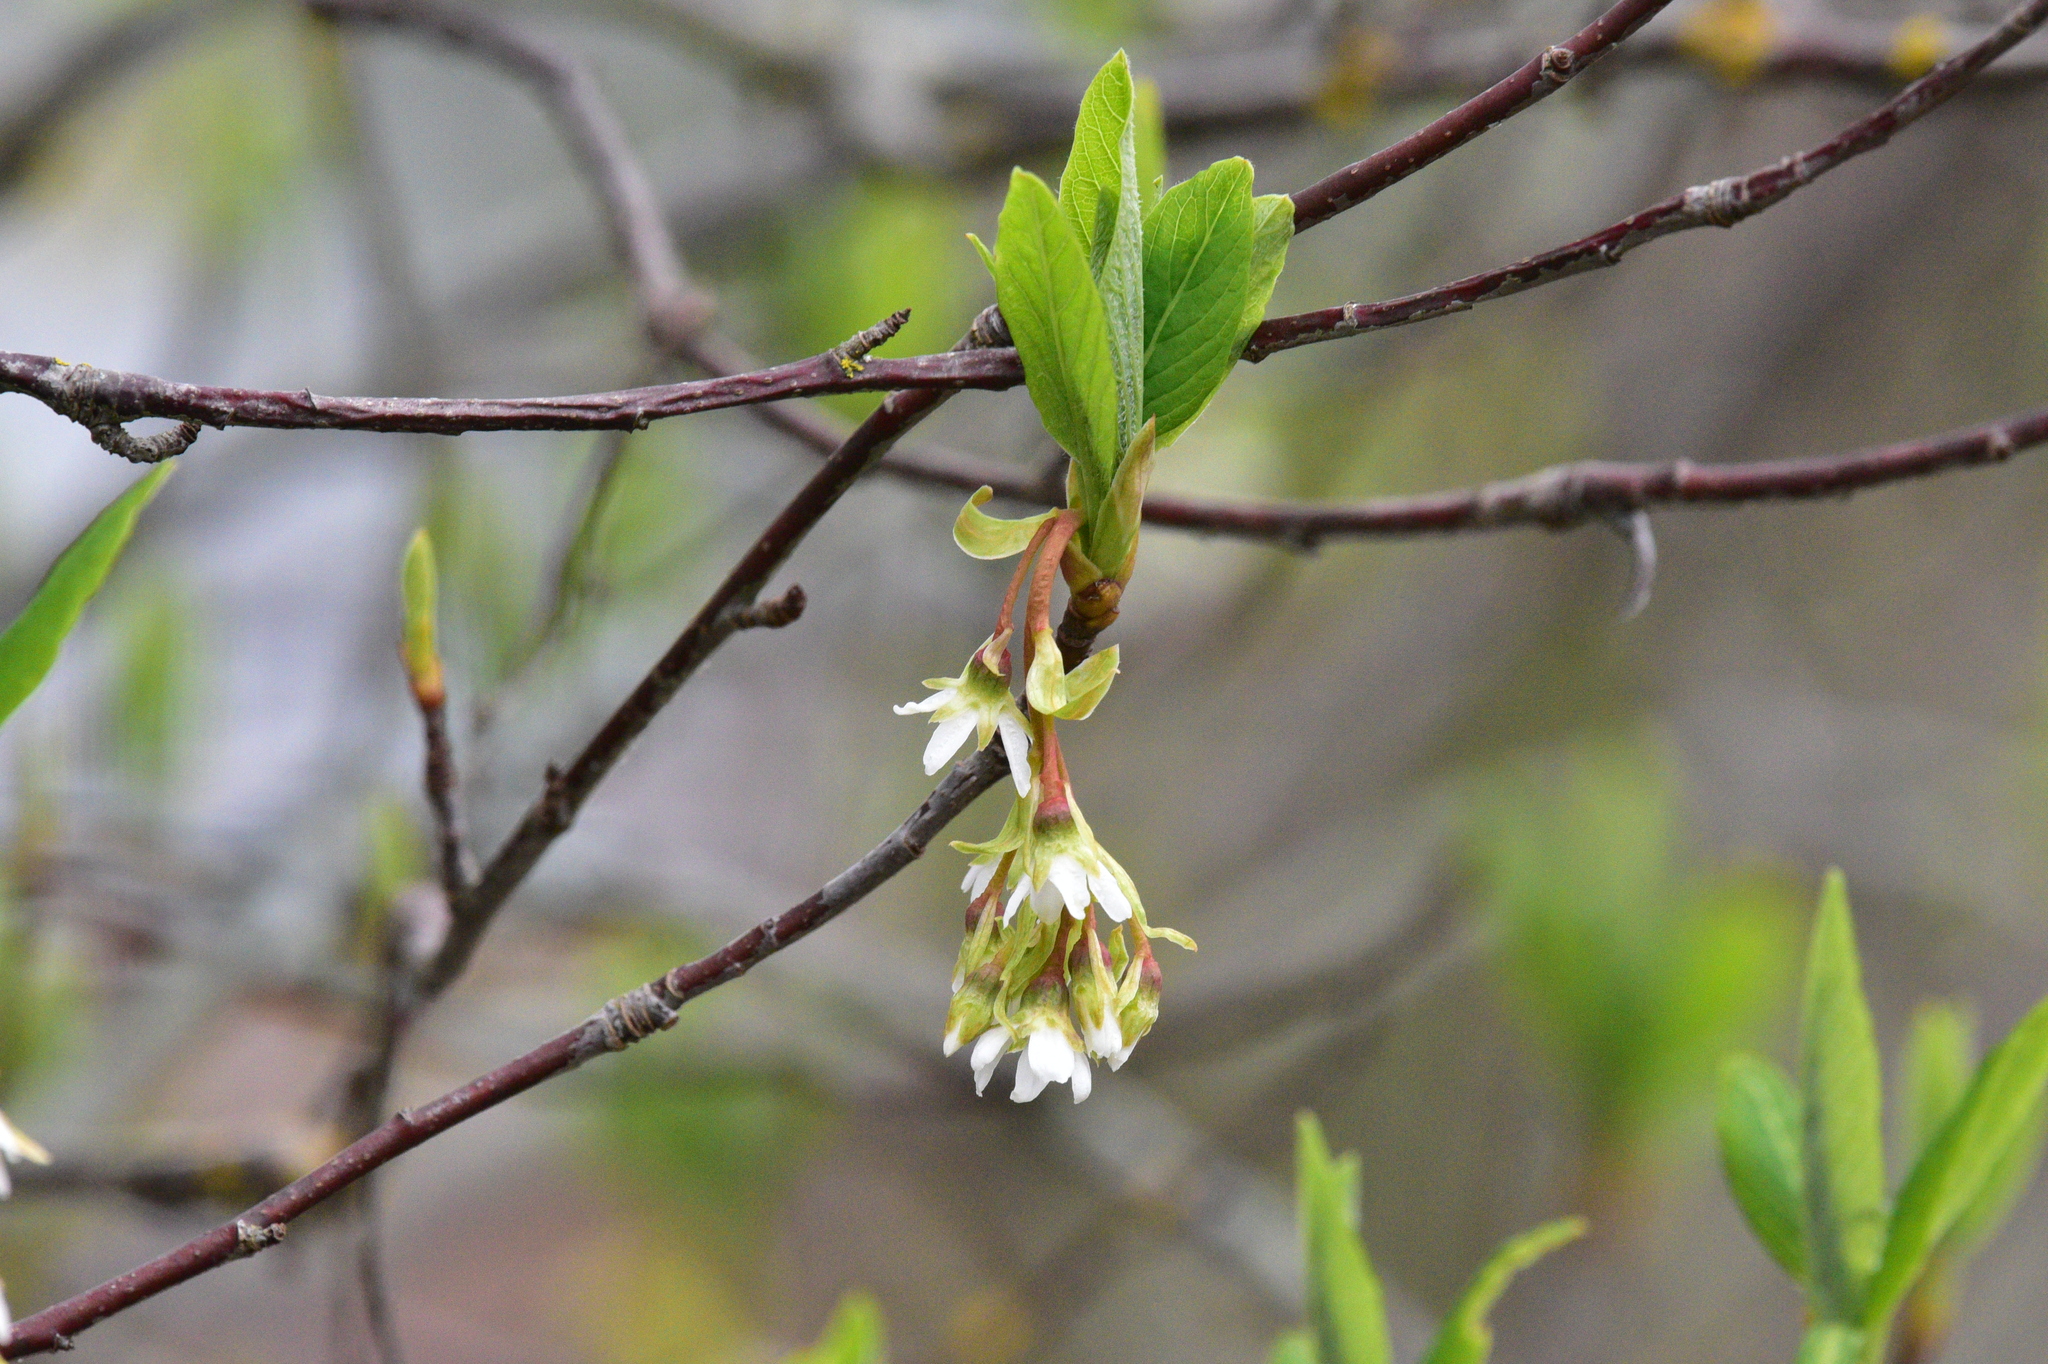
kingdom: Plantae
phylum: Tracheophyta
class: Magnoliopsida
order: Rosales
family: Rosaceae
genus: Oemleria
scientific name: Oemleria cerasiformis
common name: Osoberry
